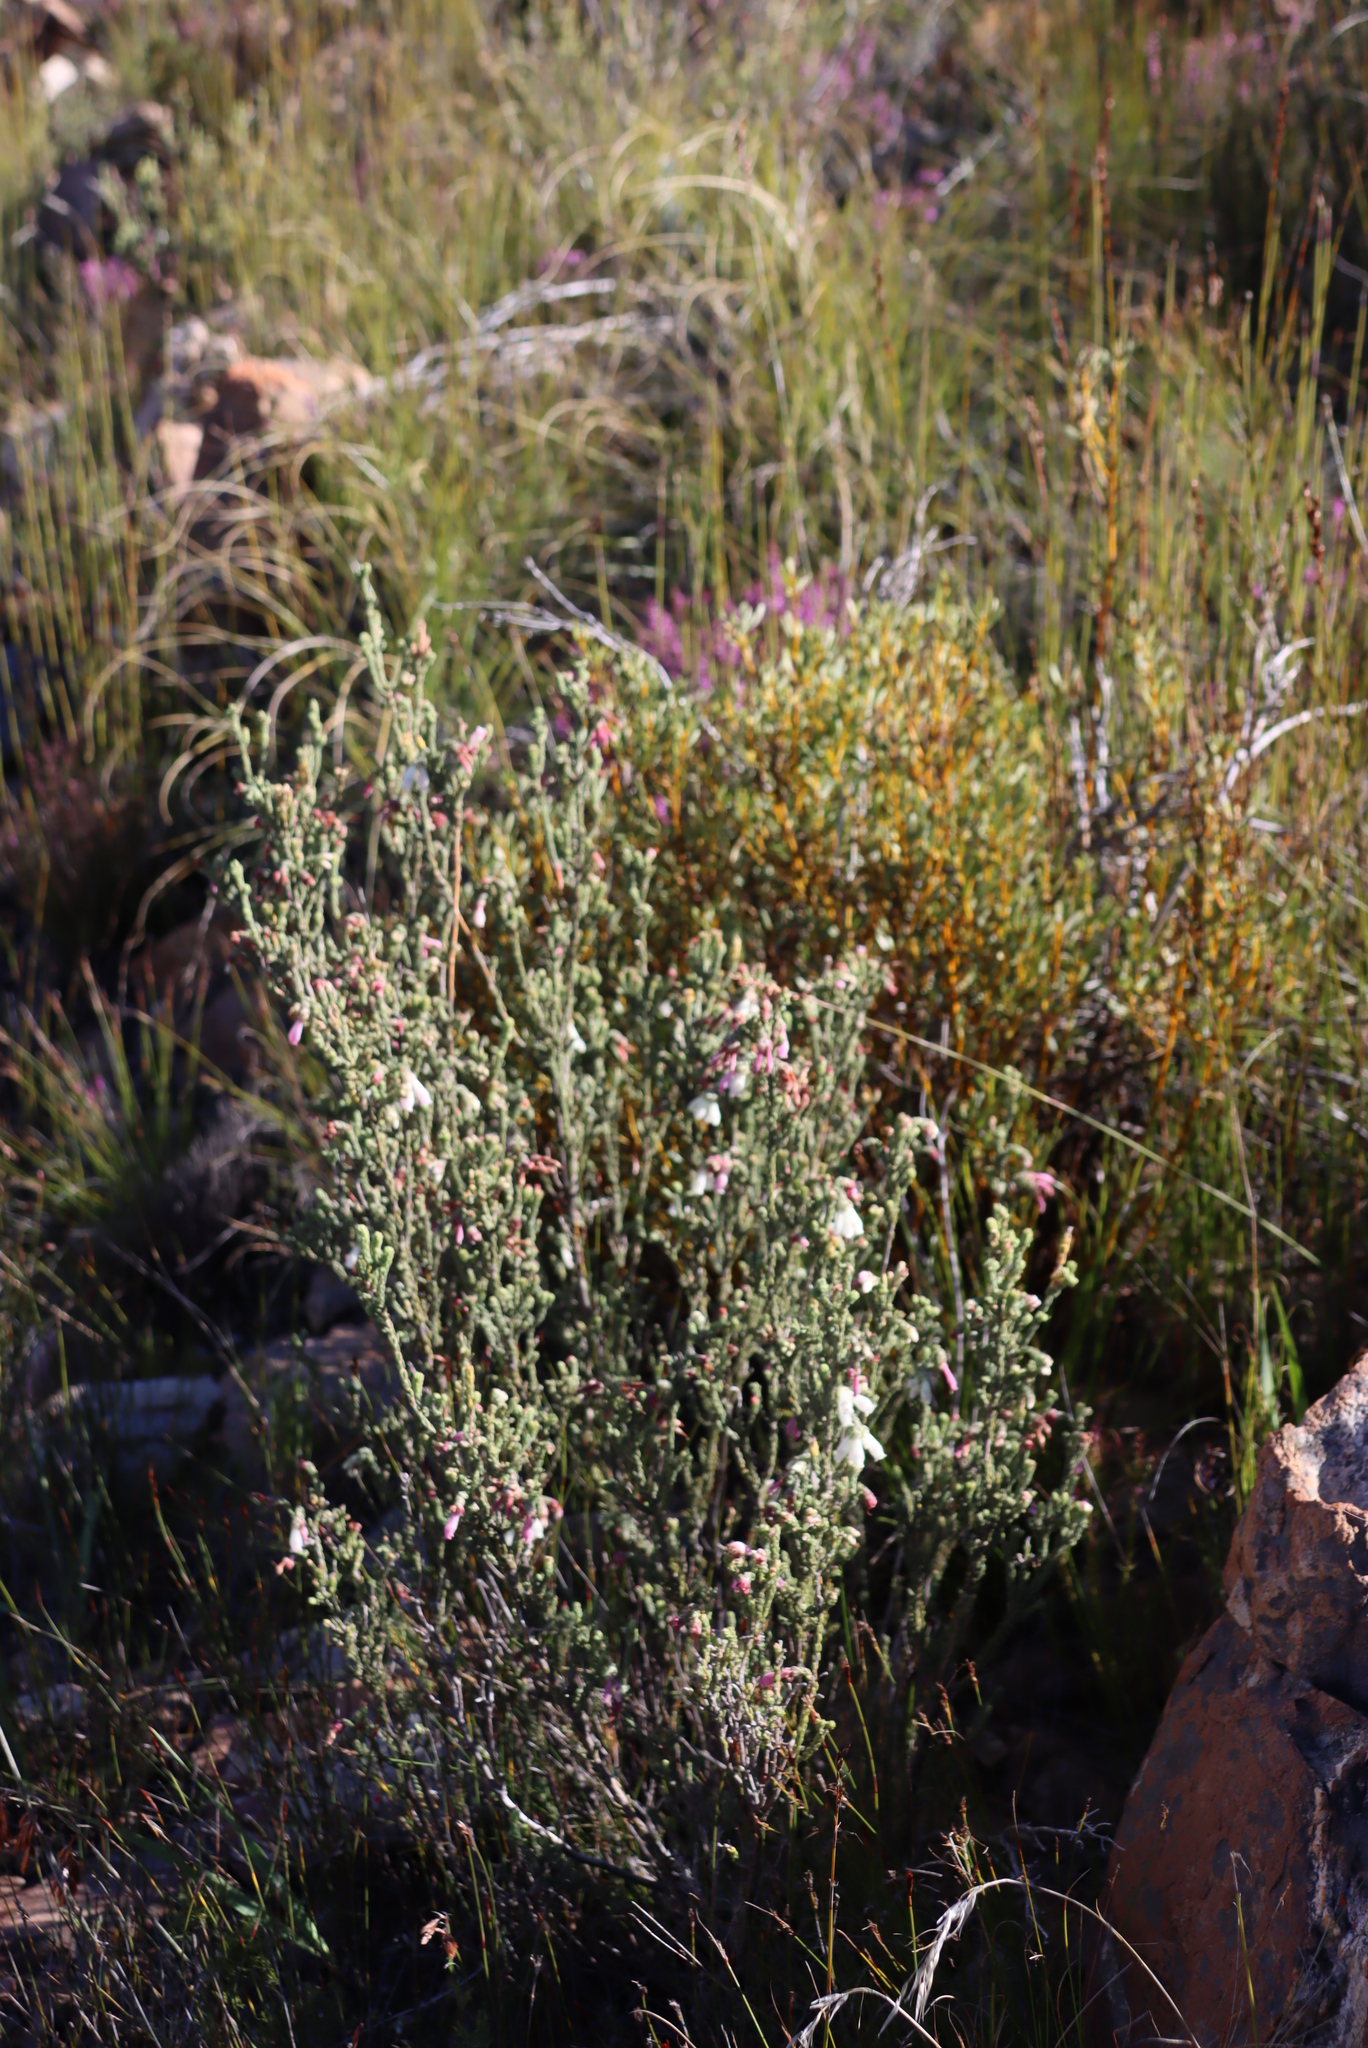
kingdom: Plantae
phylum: Tracheophyta
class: Magnoliopsida
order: Ericales
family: Ericaceae
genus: Erica
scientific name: Erica pectinifolia
